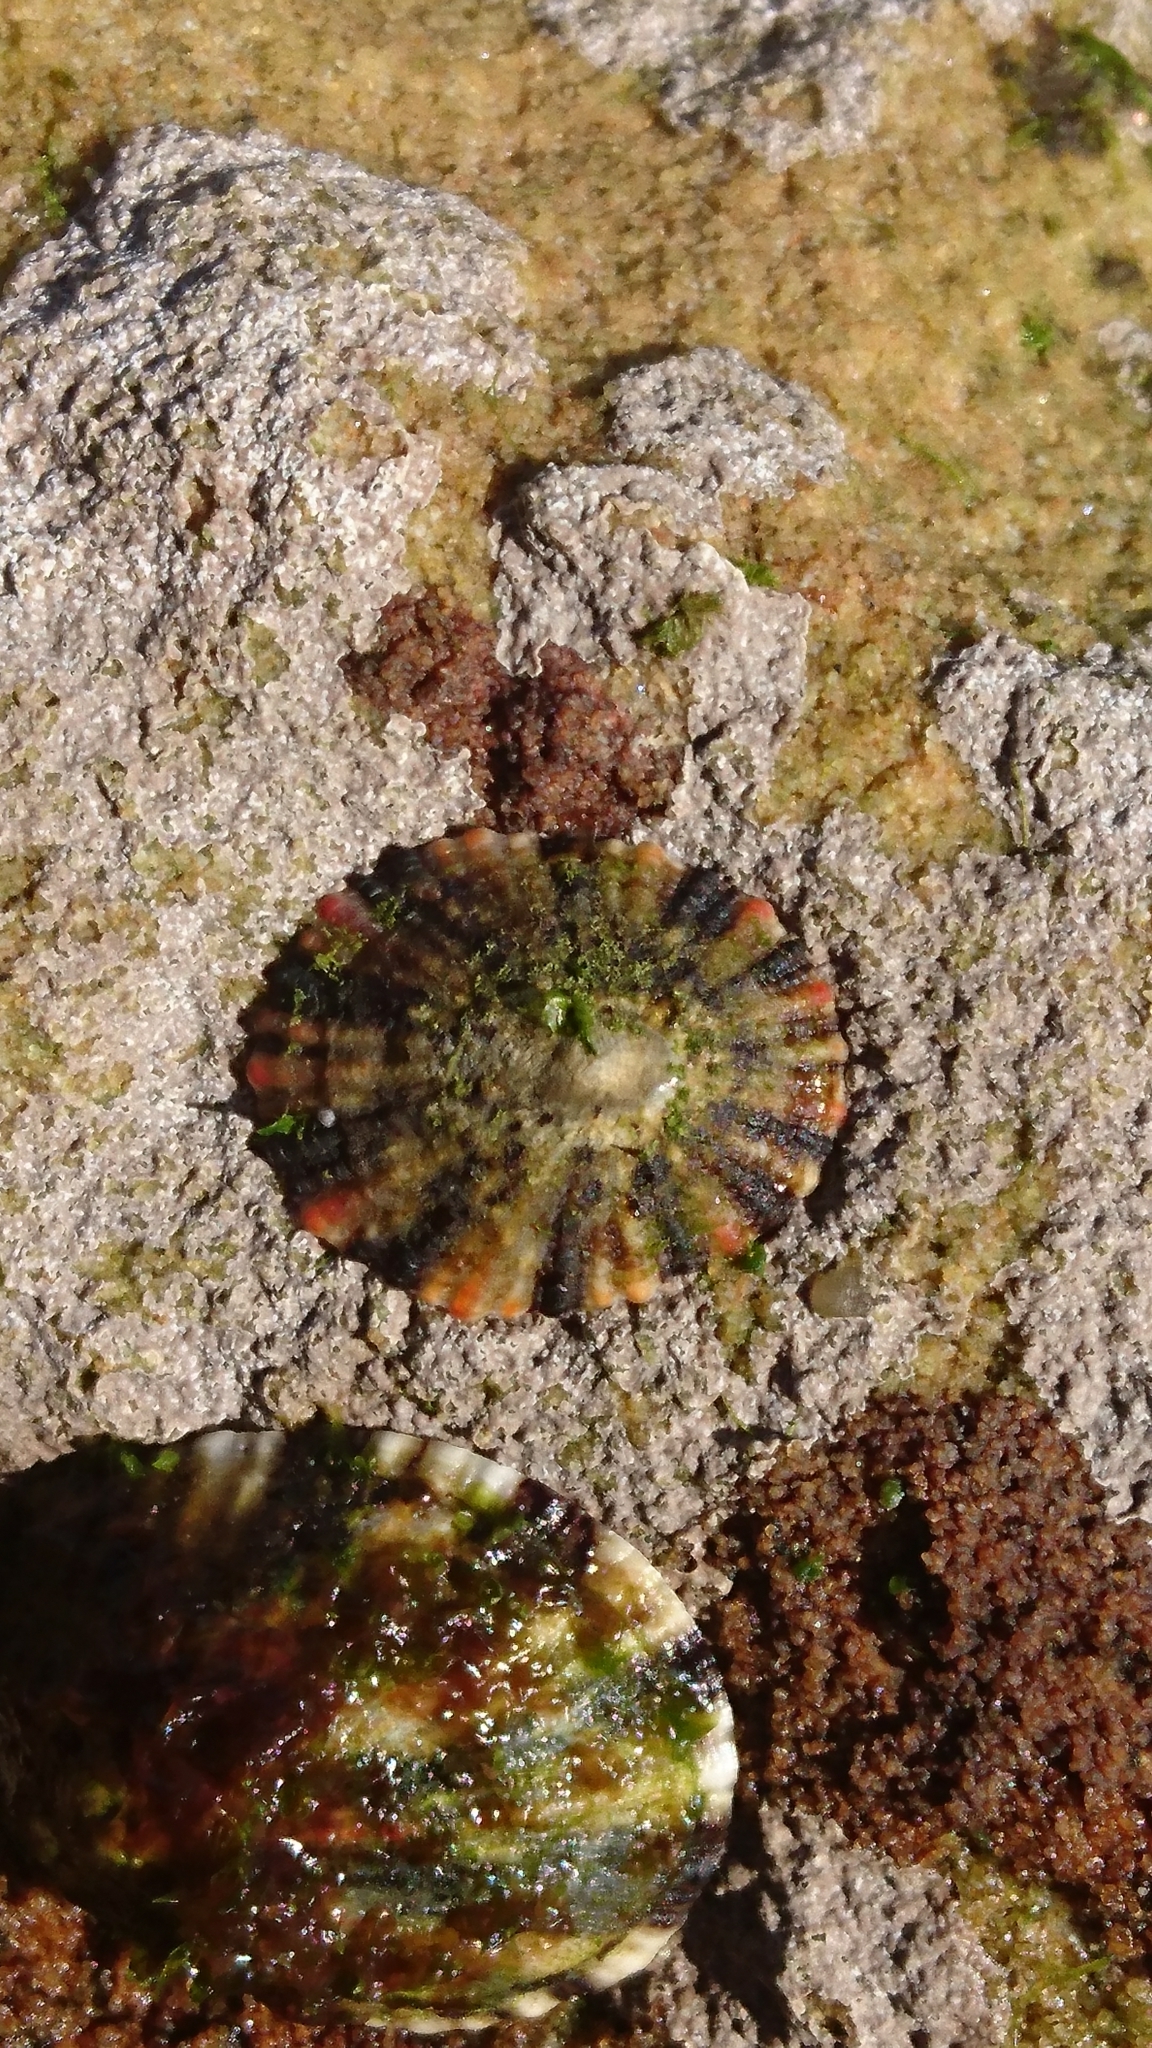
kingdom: Animalia
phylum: Mollusca
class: Gastropoda
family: Nacellidae
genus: Cellana
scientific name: Cellana tramoserica
